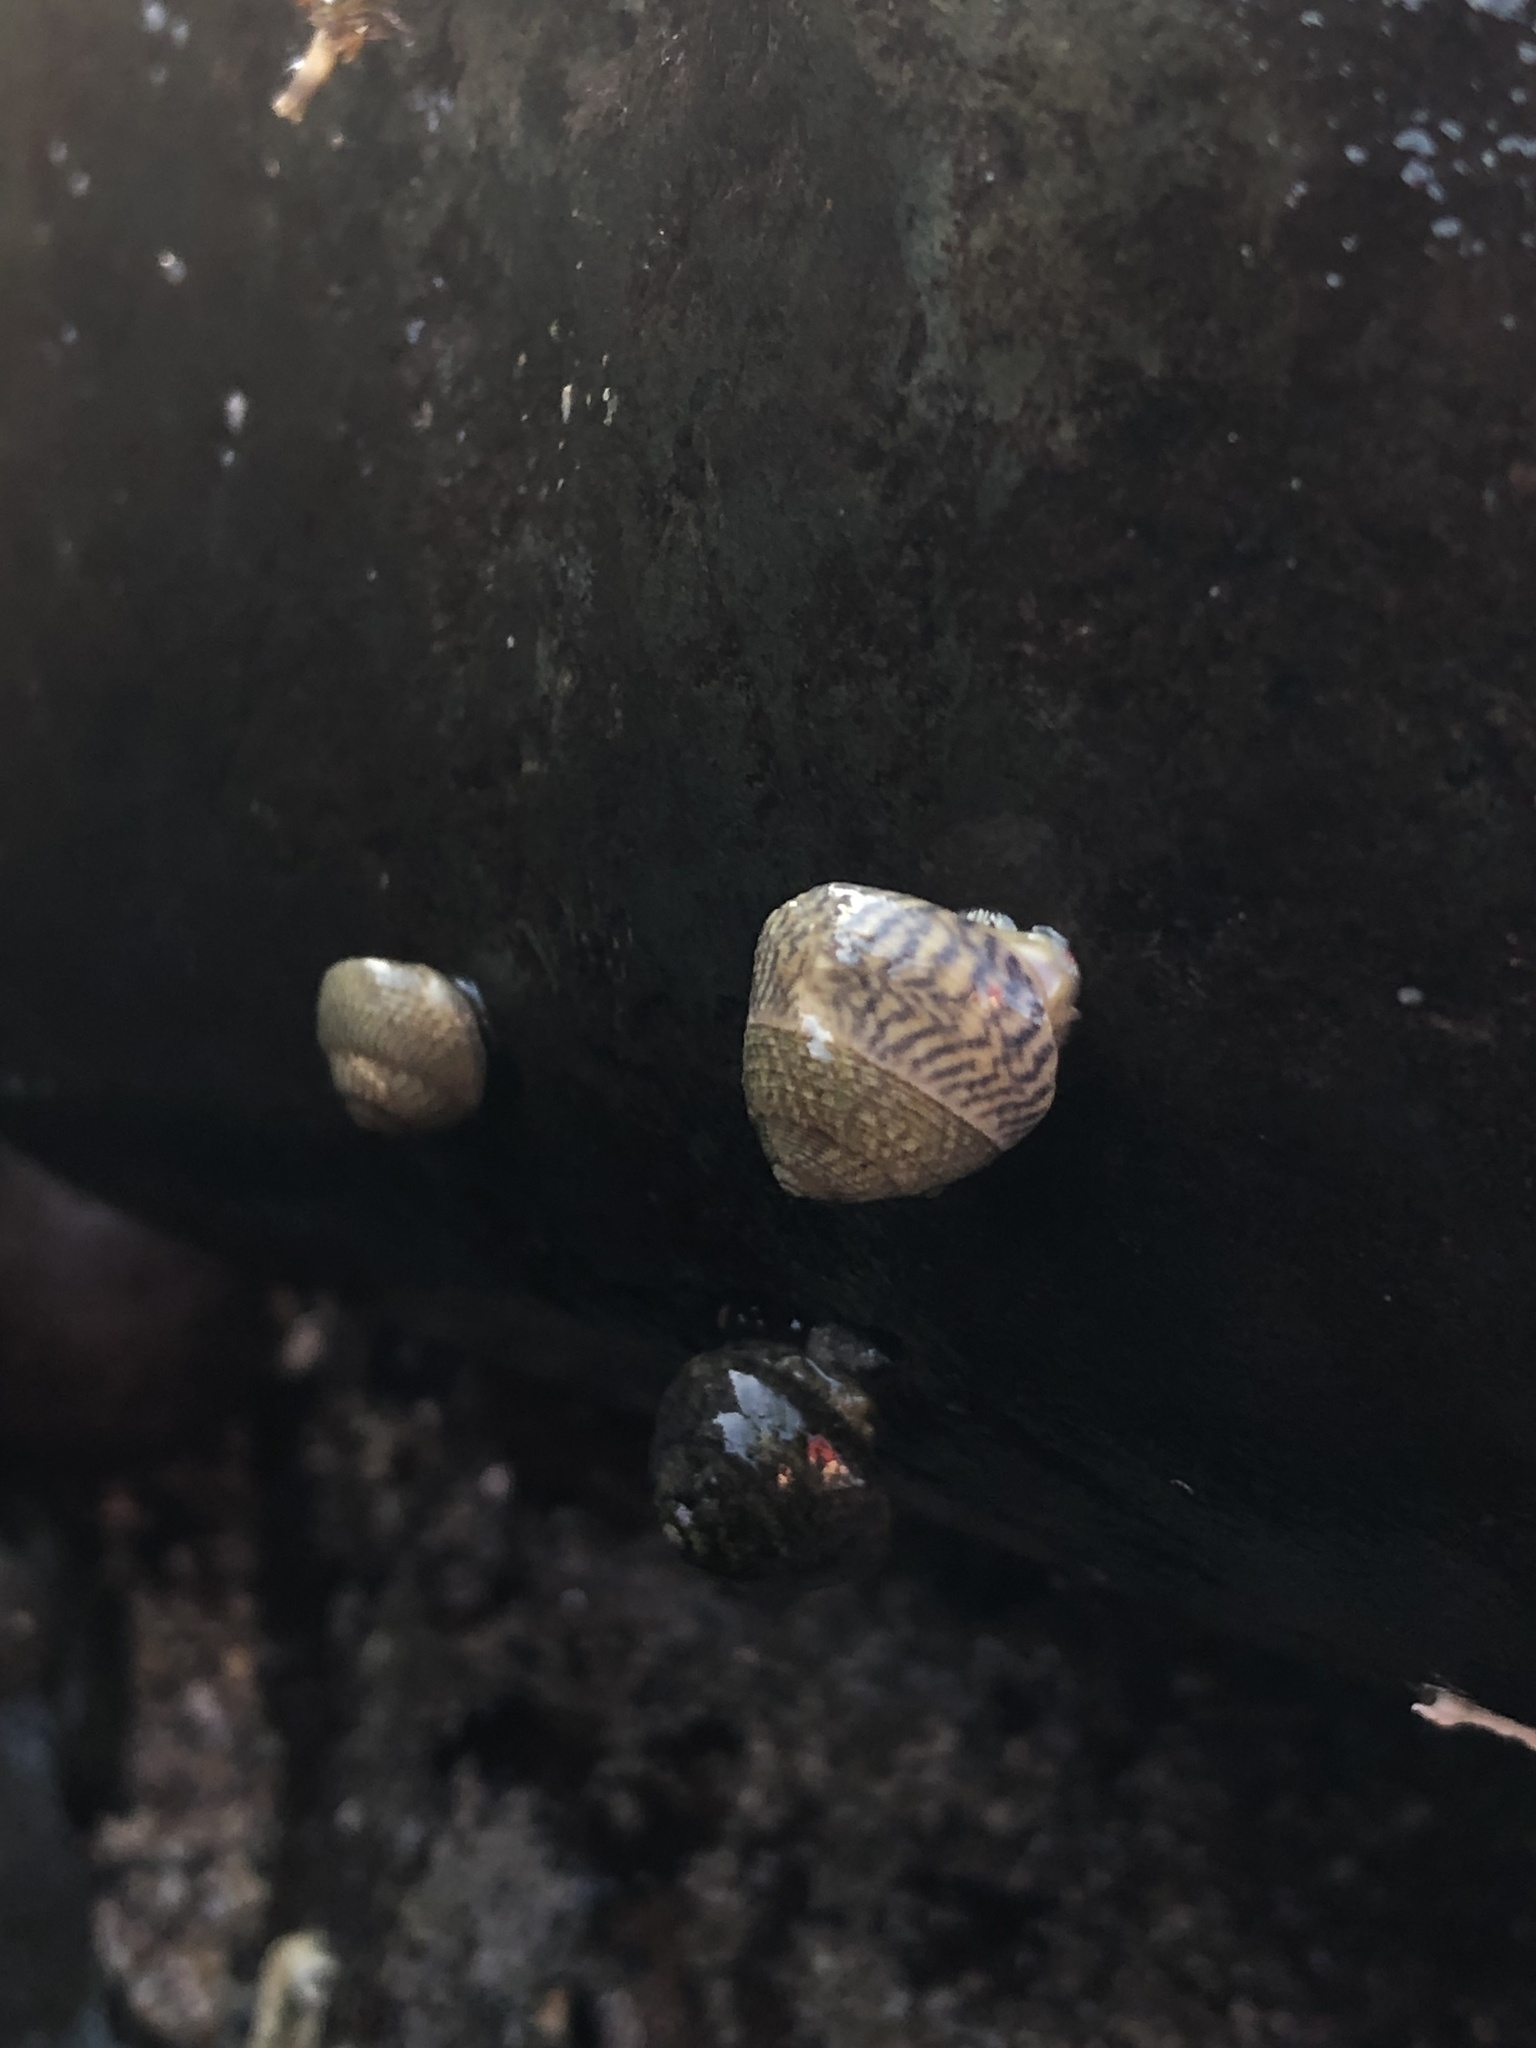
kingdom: Animalia
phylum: Mollusca
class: Gastropoda
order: Trochida
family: Trochidae
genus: Steromphala
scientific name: Steromphala cineraria
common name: Grey top shell
